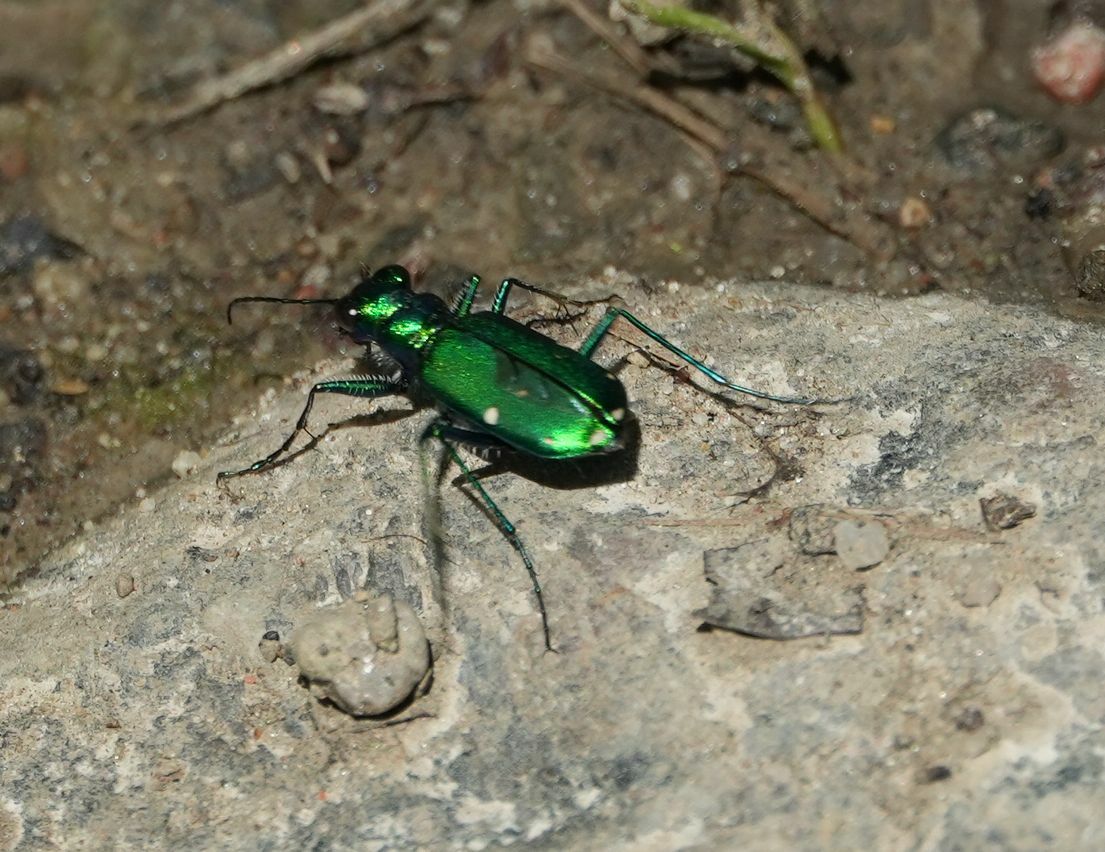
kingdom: Animalia
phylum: Arthropoda
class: Insecta
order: Coleoptera
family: Carabidae
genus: Cicindela
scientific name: Cicindela sexguttata
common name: Six-spotted tiger beetle
